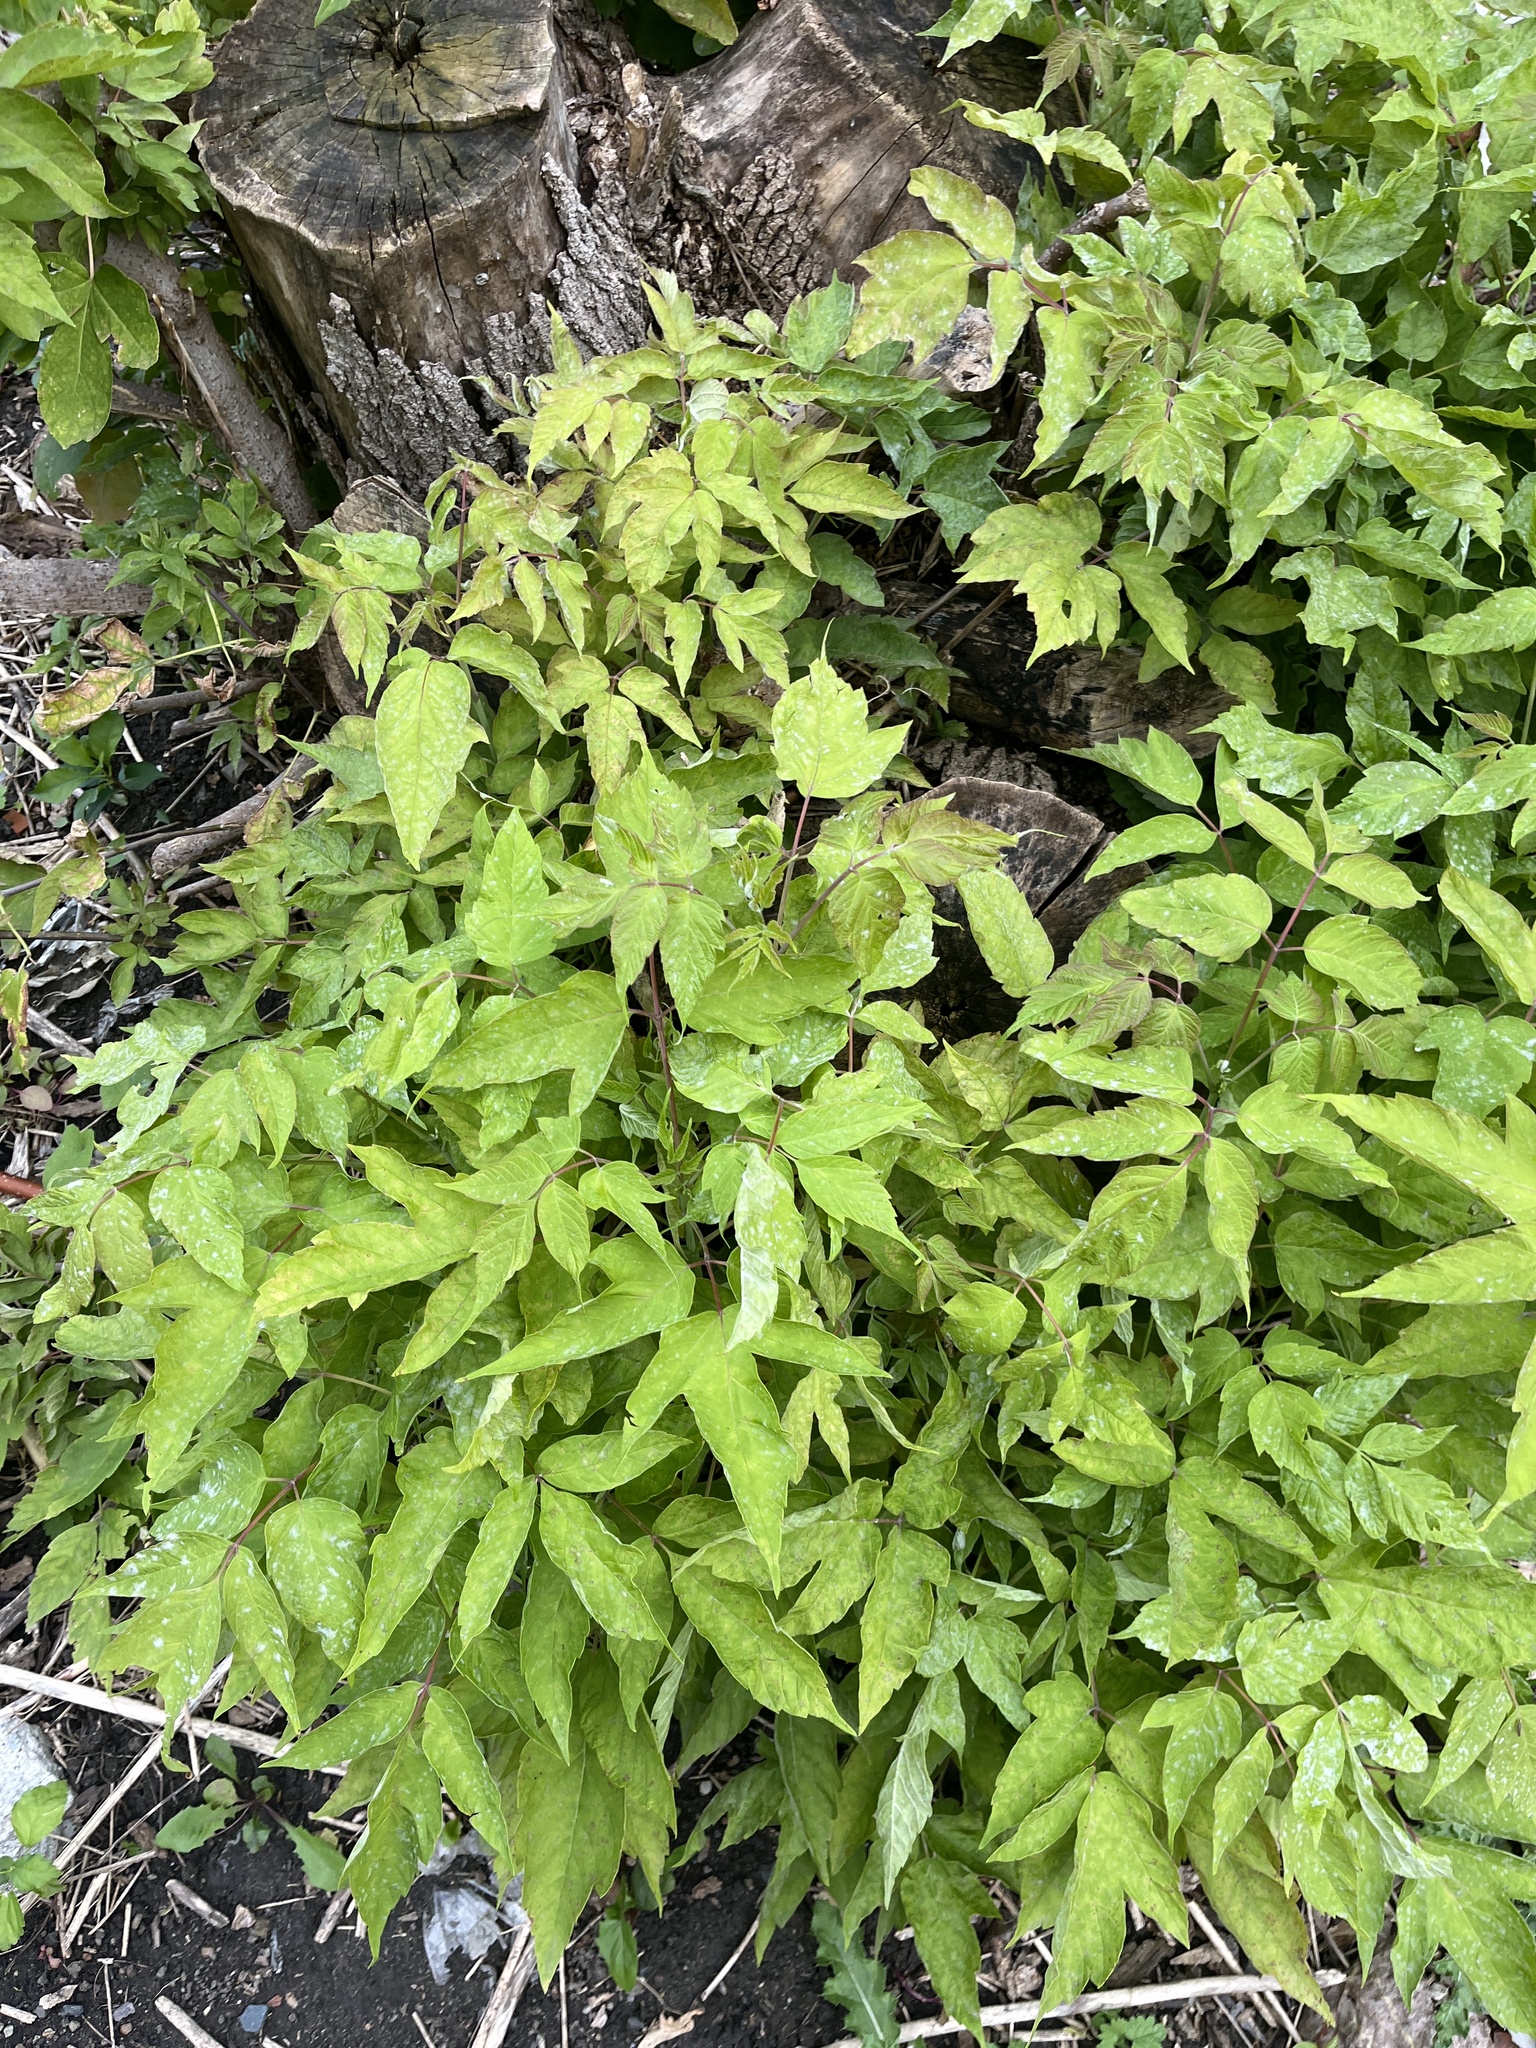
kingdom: Plantae
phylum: Tracheophyta
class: Magnoliopsida
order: Sapindales
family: Sapindaceae
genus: Acer
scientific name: Acer negundo
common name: Ashleaf maple
